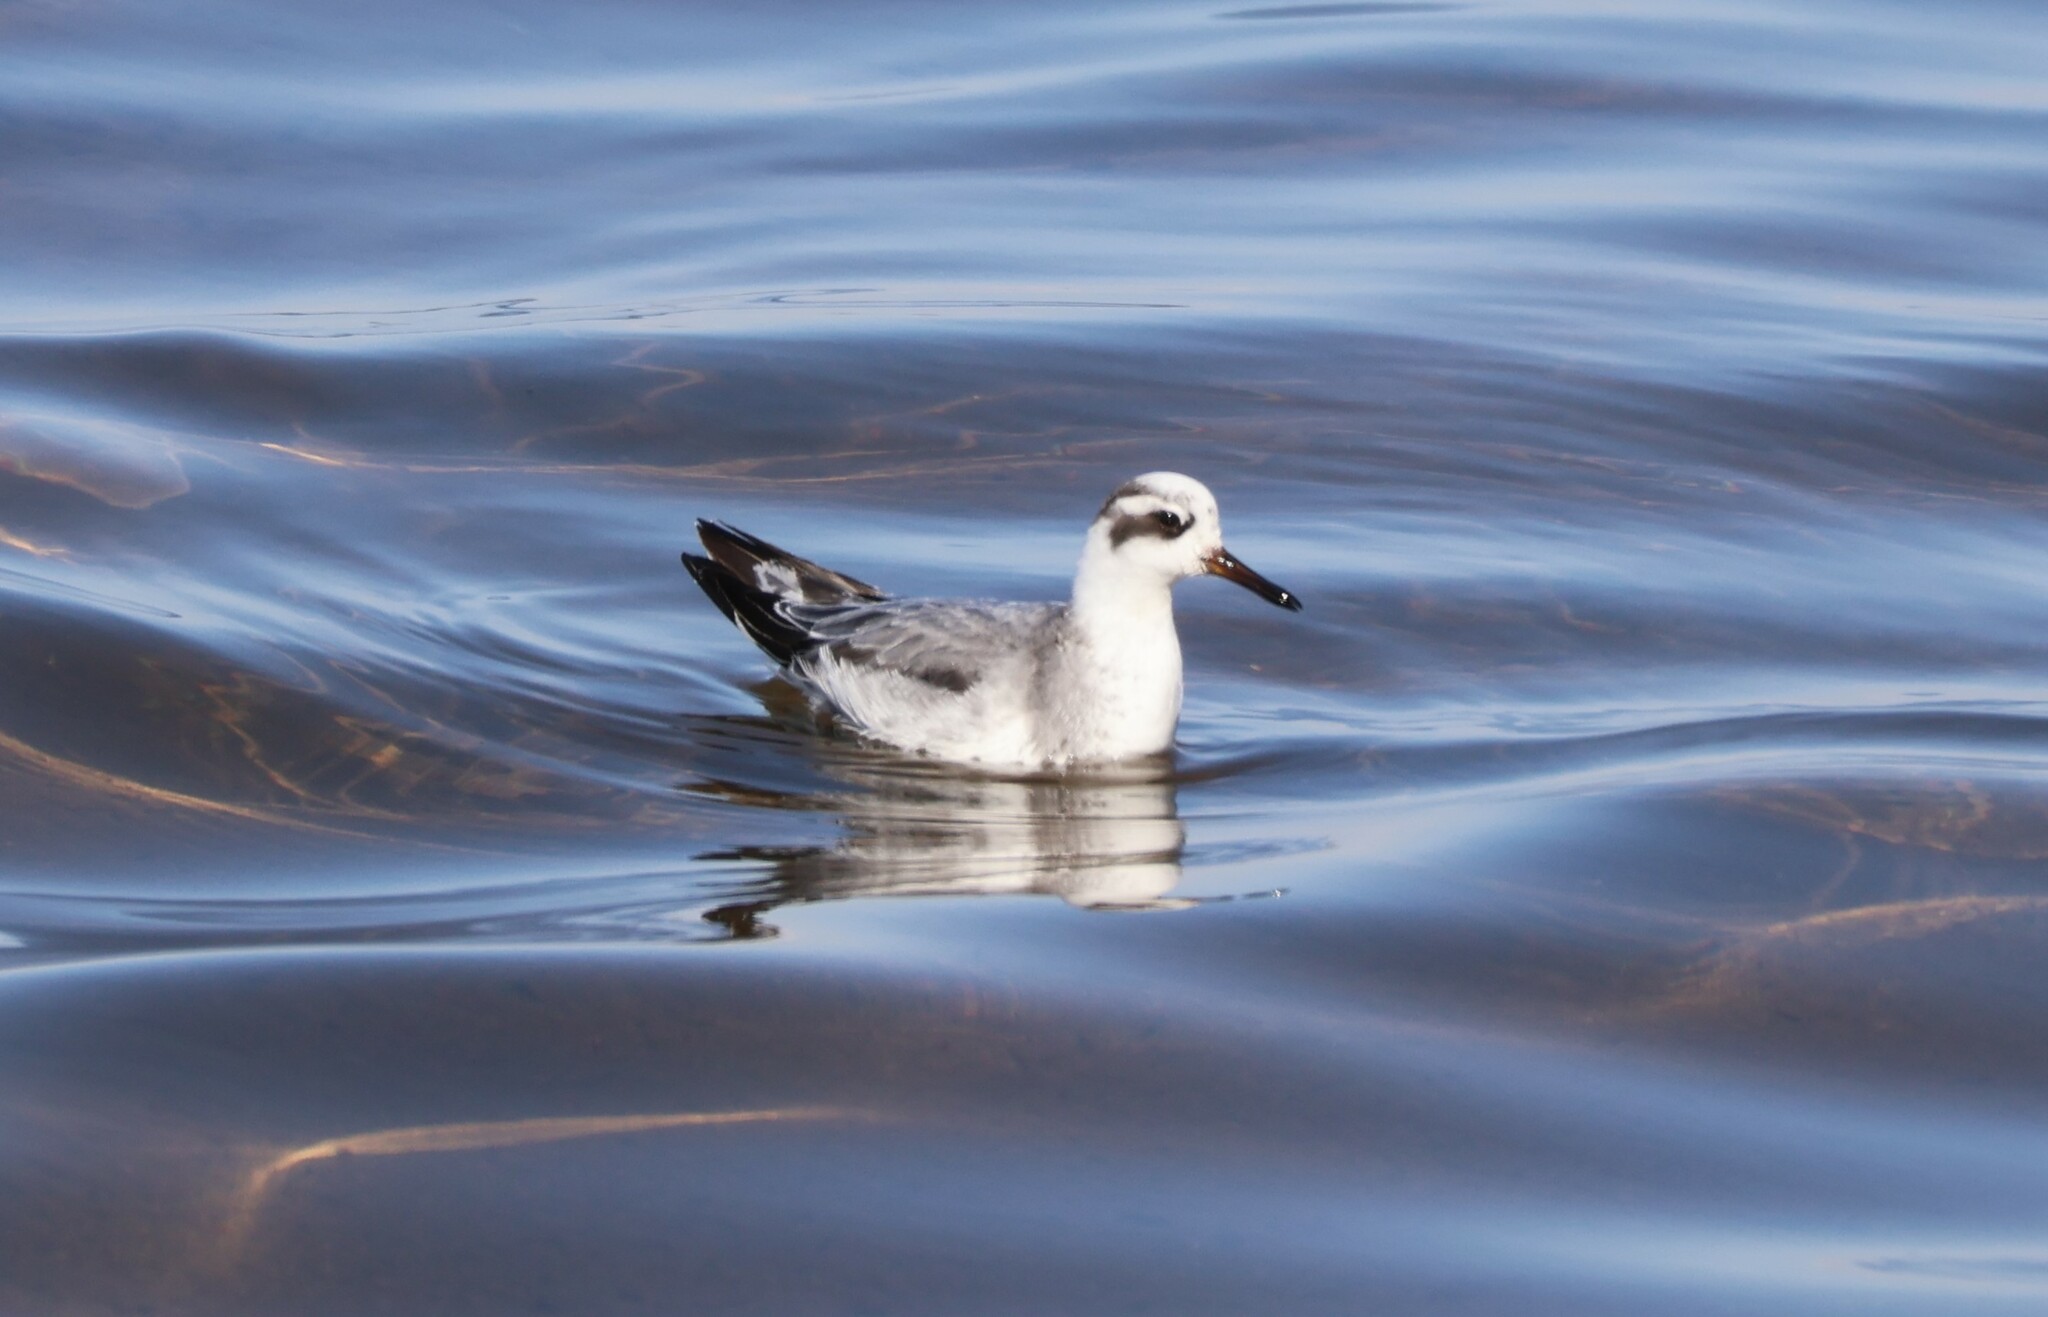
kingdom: Animalia
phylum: Chordata
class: Aves
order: Charadriiformes
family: Scolopacidae
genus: Phalaropus
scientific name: Phalaropus fulicarius
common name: Red phalarope
